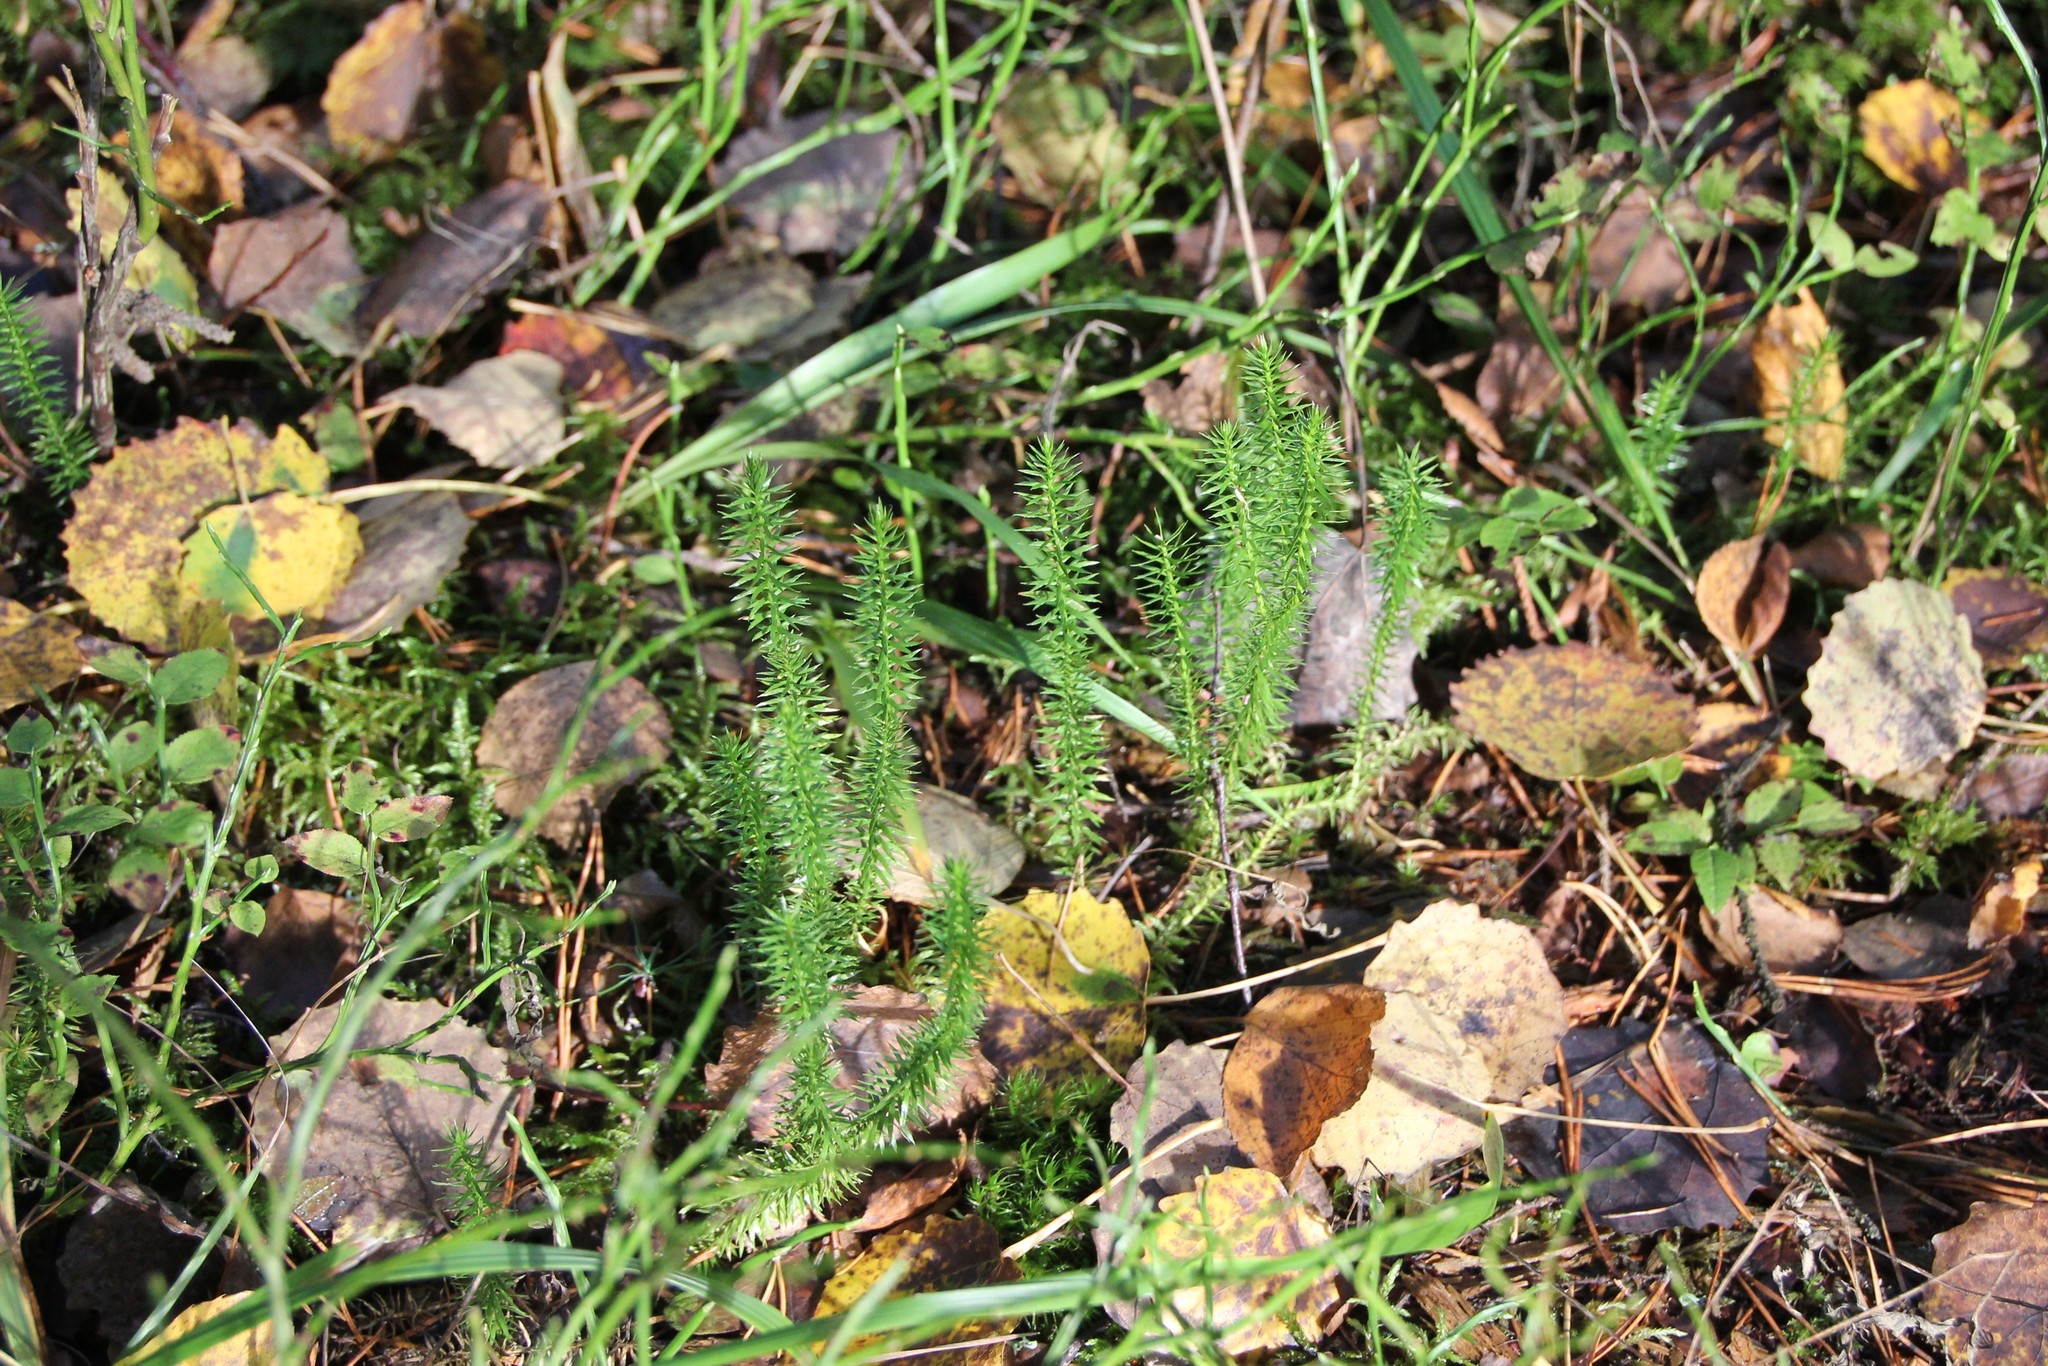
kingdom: Plantae
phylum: Tracheophyta
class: Lycopodiopsida
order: Lycopodiales
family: Lycopodiaceae
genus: Spinulum
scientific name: Spinulum annotinum
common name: Interrupted club-moss
